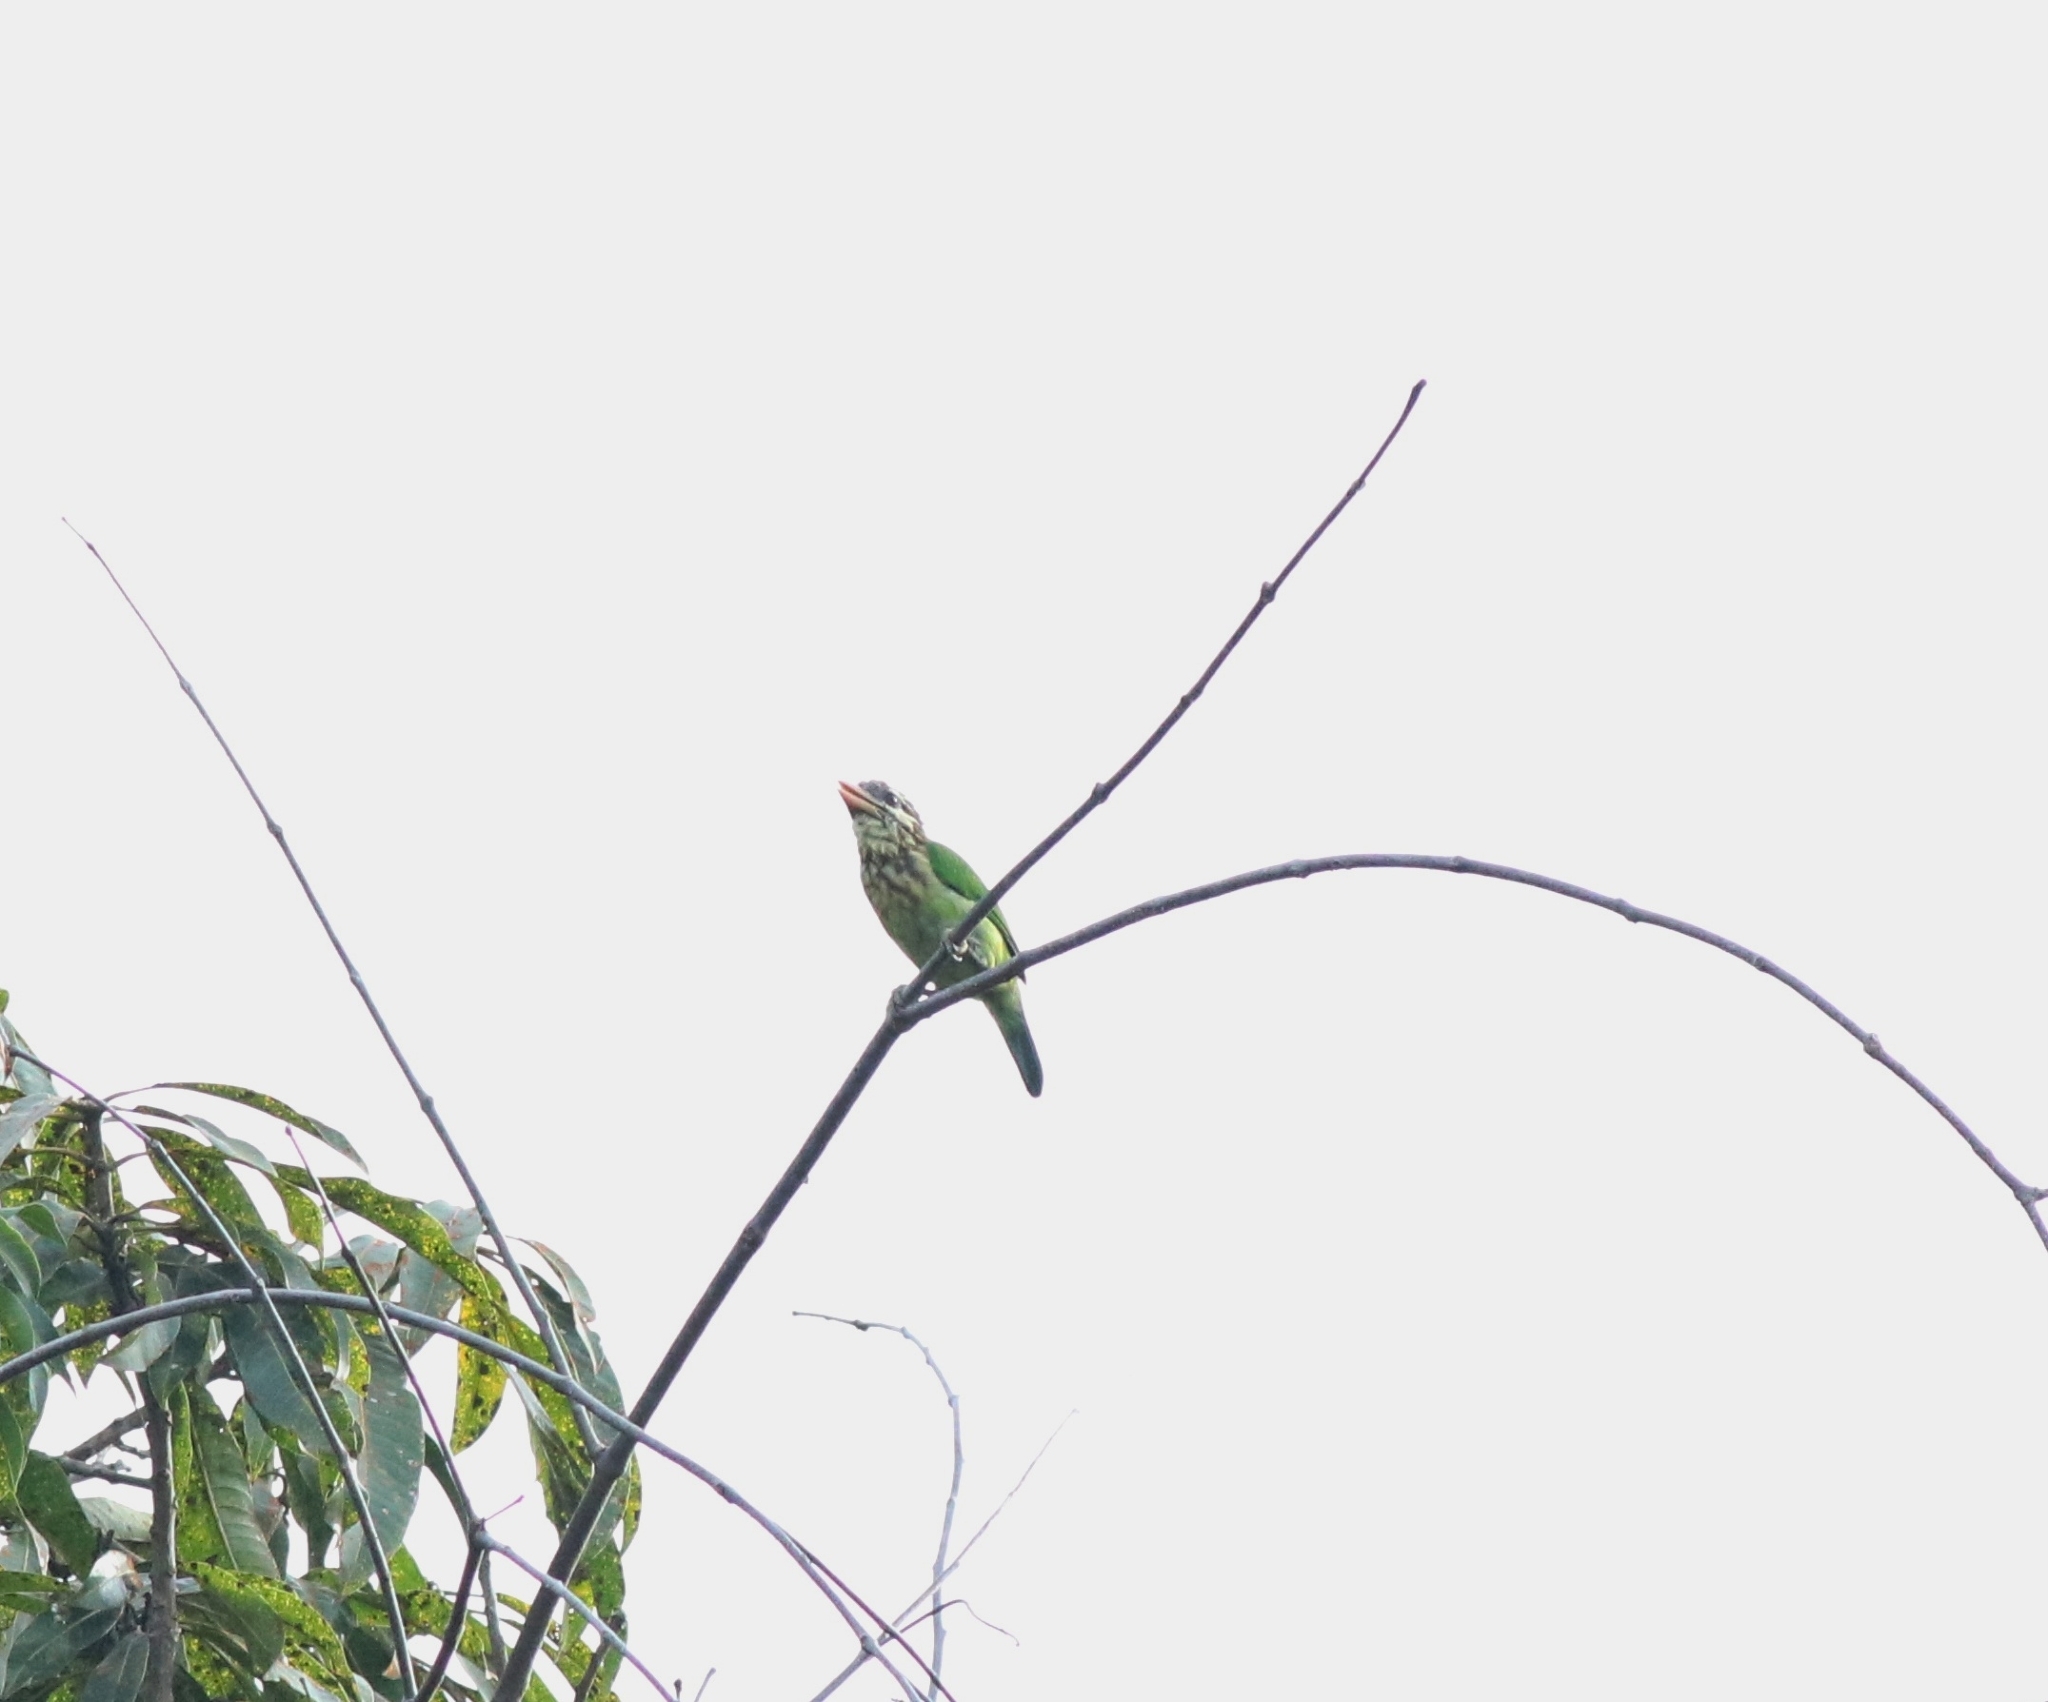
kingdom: Animalia
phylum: Chordata
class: Aves
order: Piciformes
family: Megalaimidae
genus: Psilopogon
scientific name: Psilopogon viridis
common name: White-cheeked barbet
